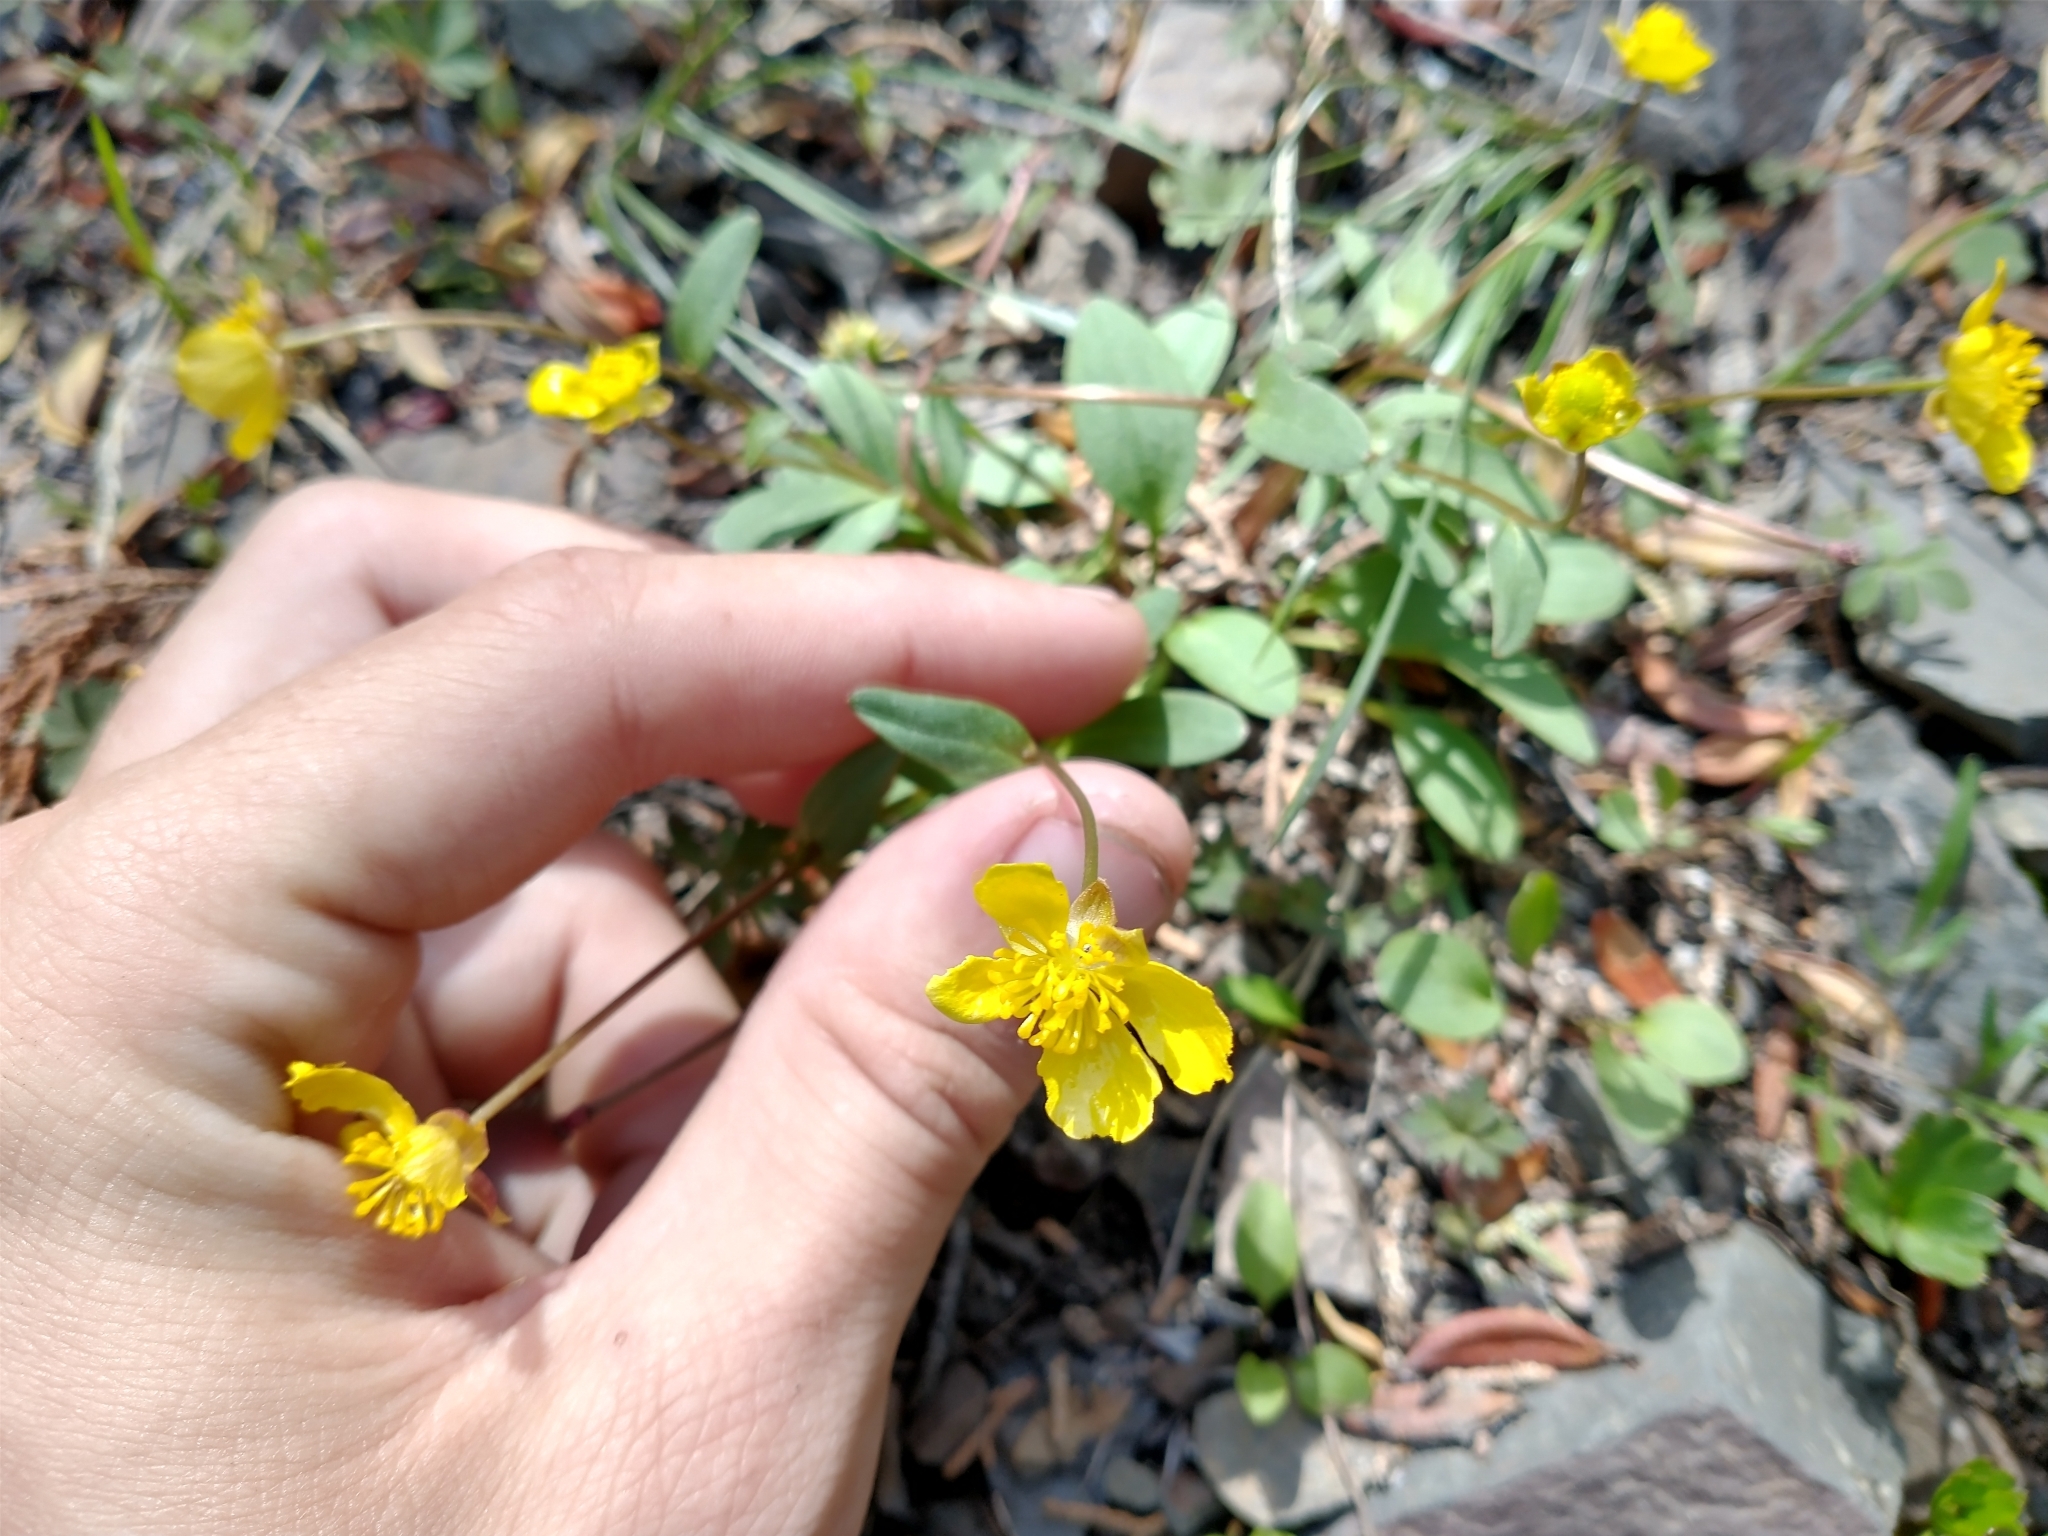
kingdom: Plantae
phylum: Tracheophyta
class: Magnoliopsida
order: Ranunculales
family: Ranunculaceae
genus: Ranunculus
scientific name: Ranunculus glaberrimus
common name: Sagebrush buttercup
